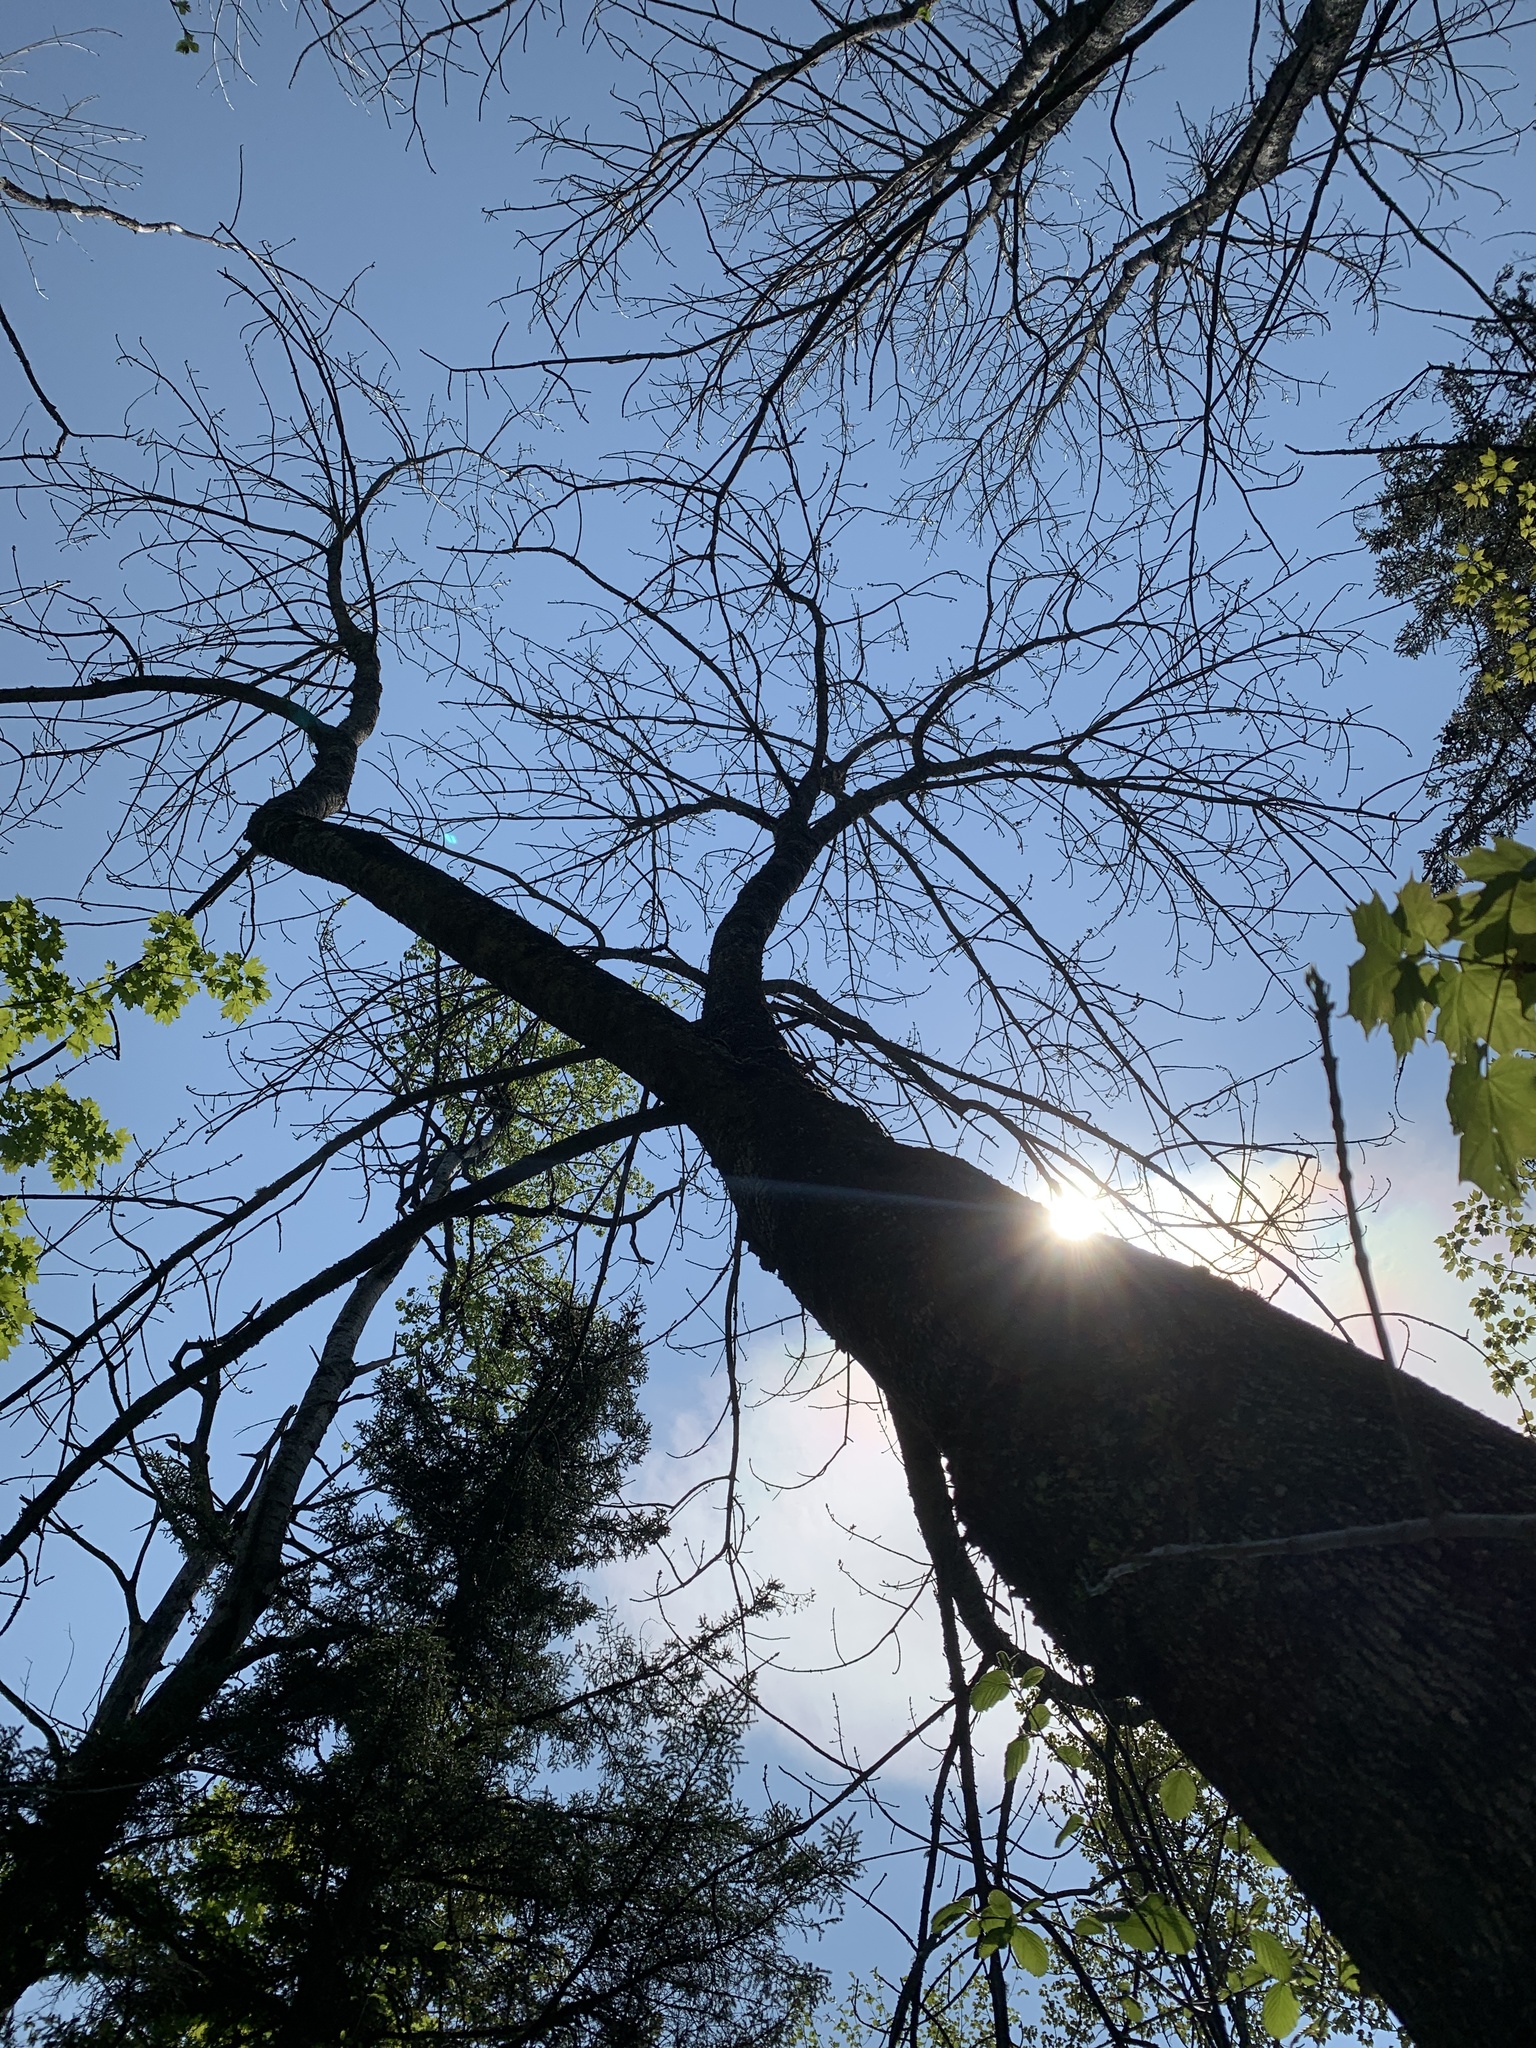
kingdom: Plantae
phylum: Tracheophyta
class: Magnoliopsida
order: Lamiales
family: Oleaceae
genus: Fraxinus
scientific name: Fraxinus americana
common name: White ash
